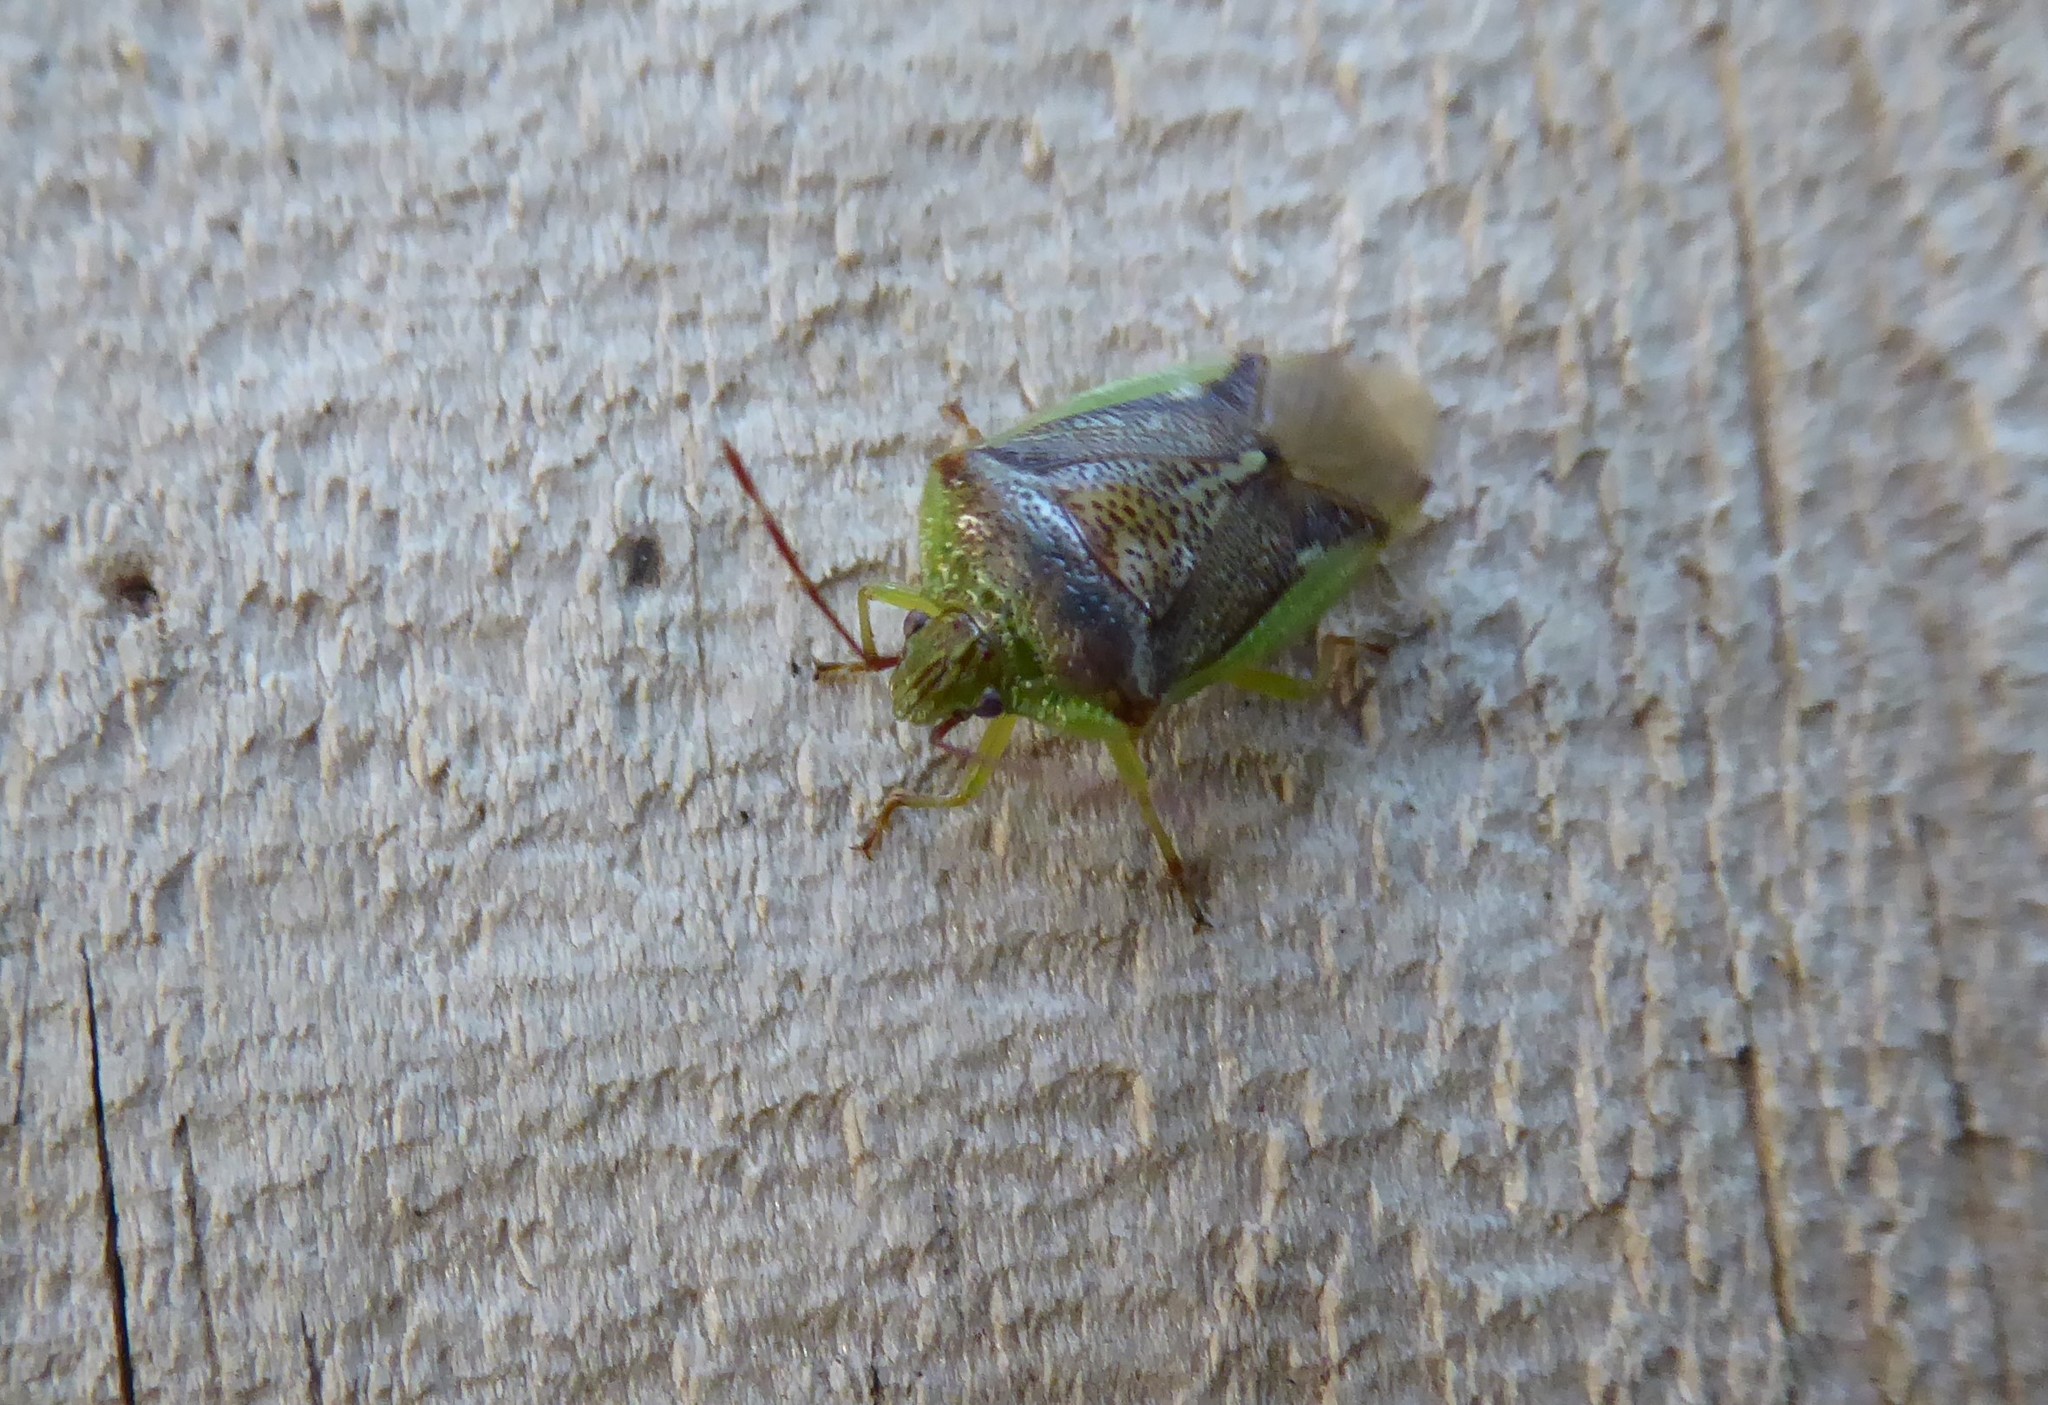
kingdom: Animalia
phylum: Arthropoda
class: Insecta
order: Hemiptera
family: Acanthosomatidae
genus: Oncacontias
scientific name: Oncacontias vittatus
